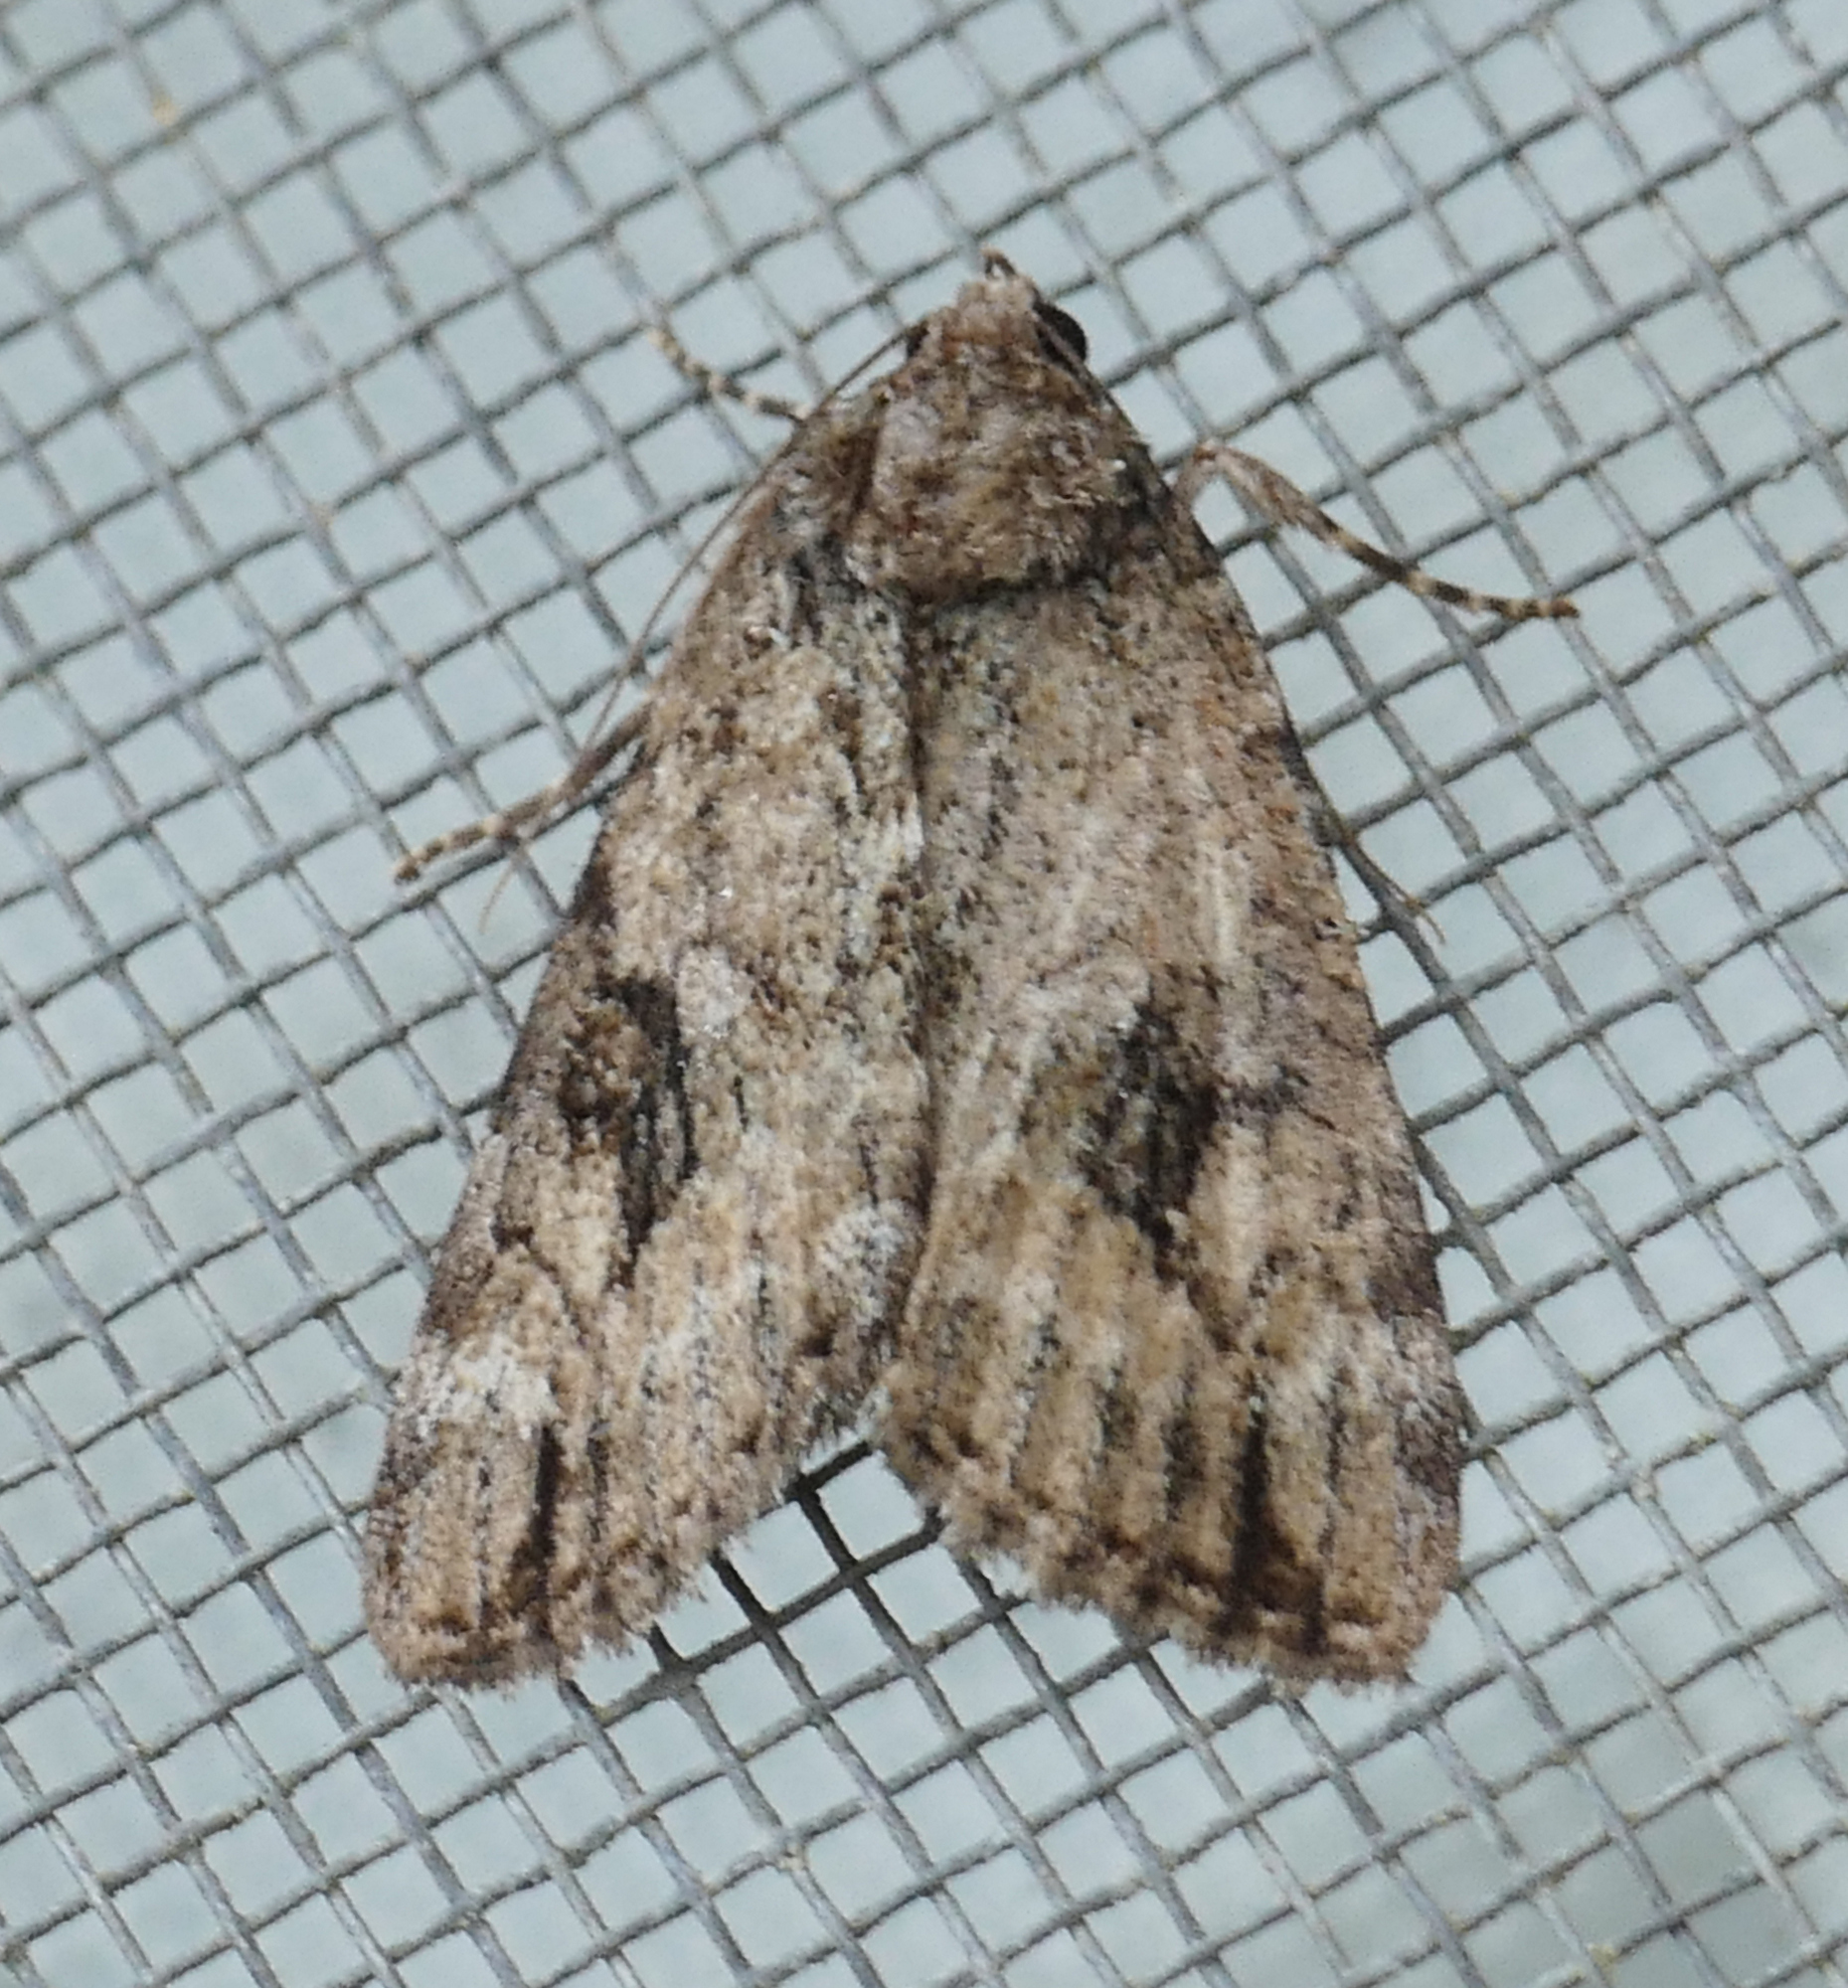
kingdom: Animalia
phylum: Arthropoda
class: Insecta
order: Lepidoptera
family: Erebidae
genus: Catocala
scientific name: Catocala micronympha
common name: Little nymph underwing
